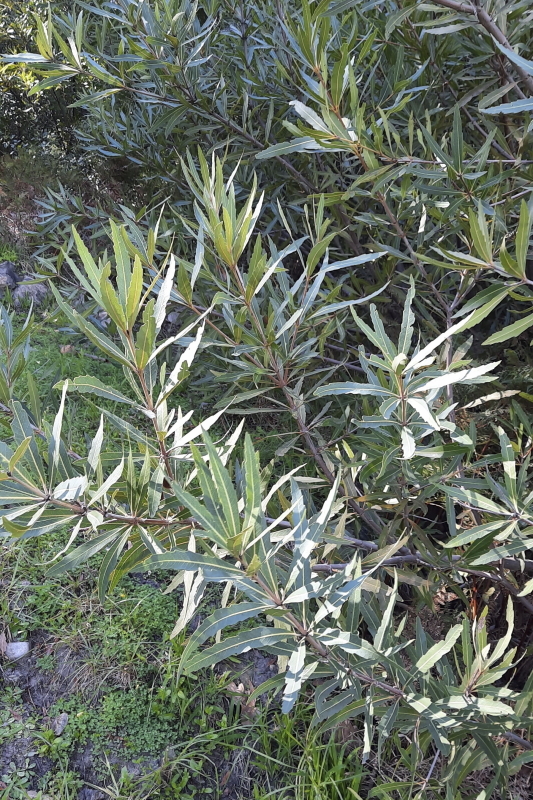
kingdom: Plantae
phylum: Tracheophyta
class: Magnoliopsida
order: Proteales
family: Proteaceae
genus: Brabejum
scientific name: Brabejum stellatifolium
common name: Wild almond
